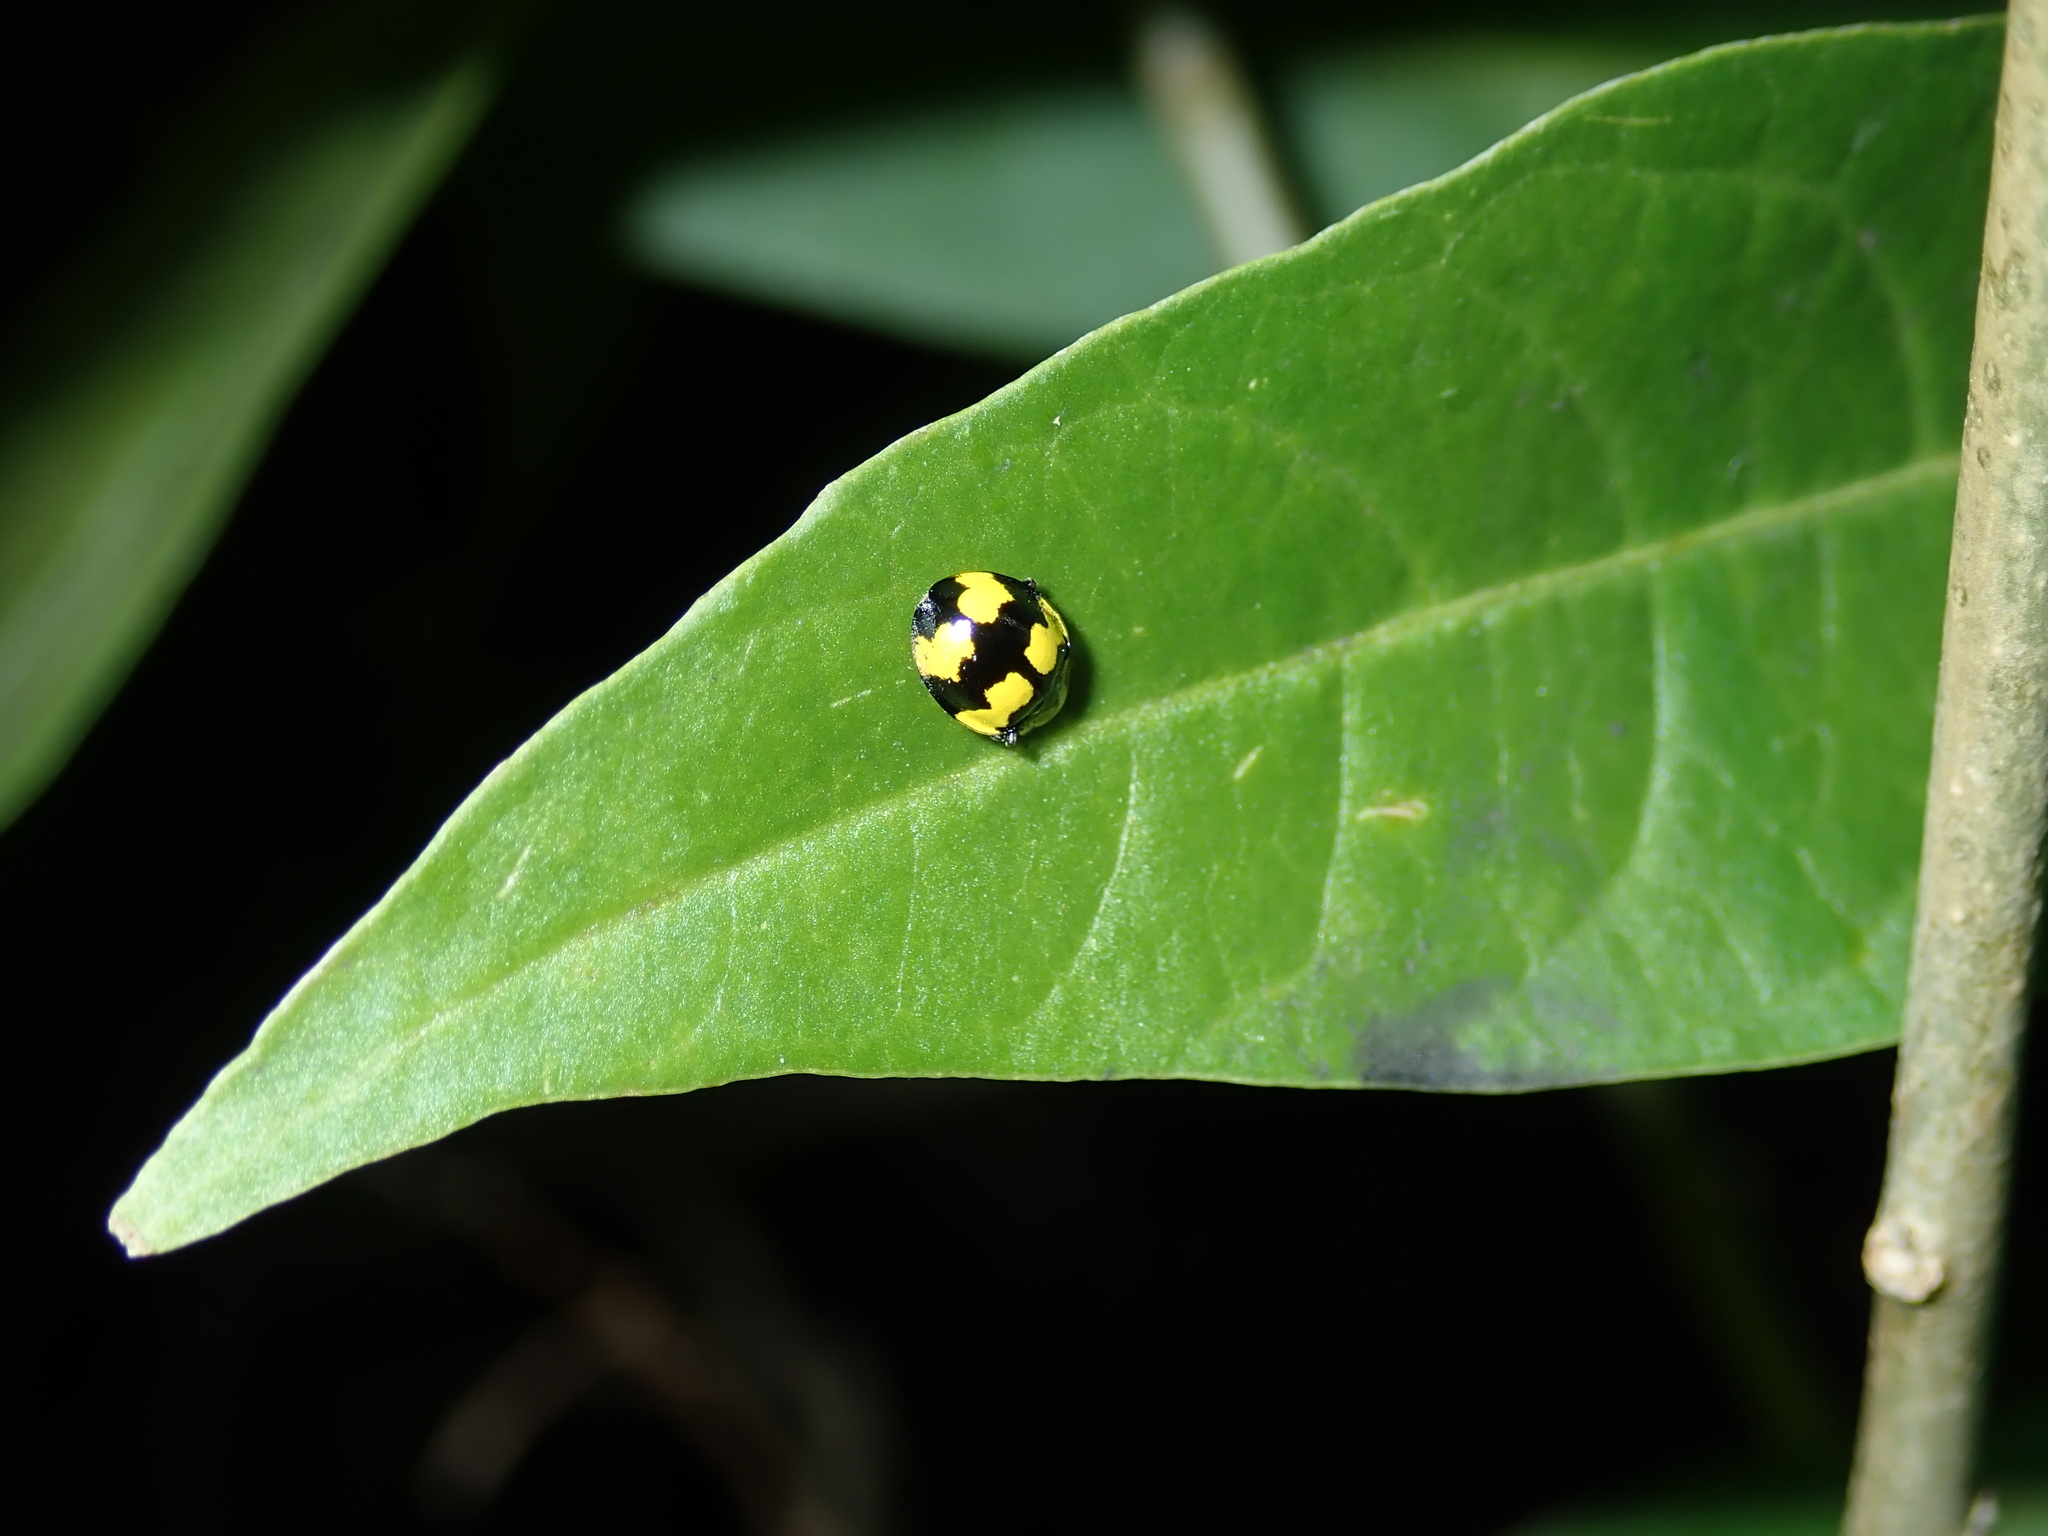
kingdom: Animalia
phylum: Arthropoda
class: Insecta
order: Coleoptera
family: Coccinellidae
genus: Illeis
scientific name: Illeis galbula
